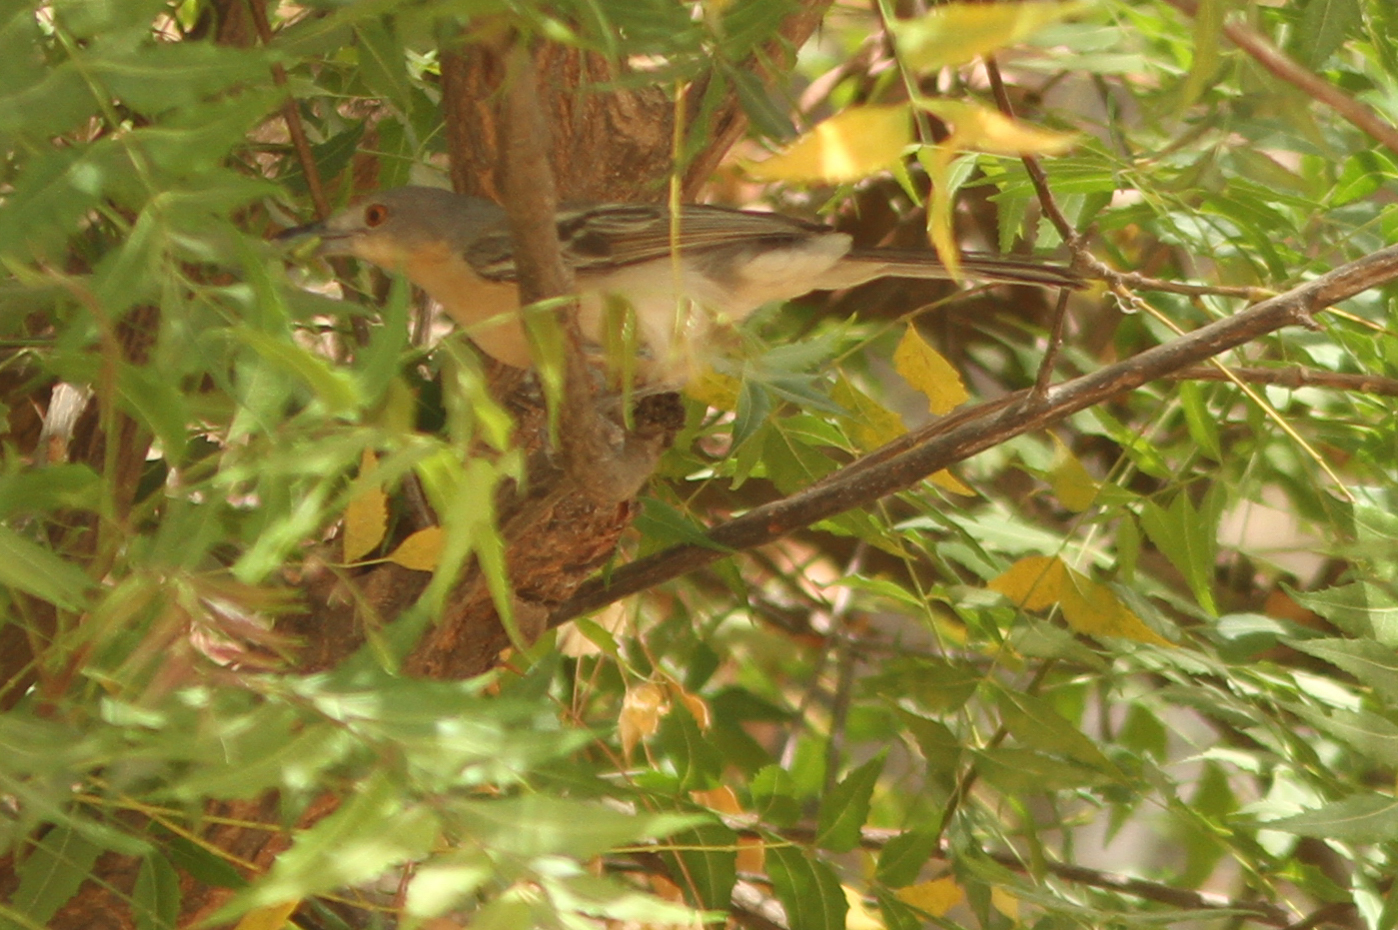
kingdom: Animalia
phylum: Chordata
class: Aves
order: Passeriformes
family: Malaconotidae
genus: Dryoscopus
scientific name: Dryoscopus gambensis
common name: Northern puffback
